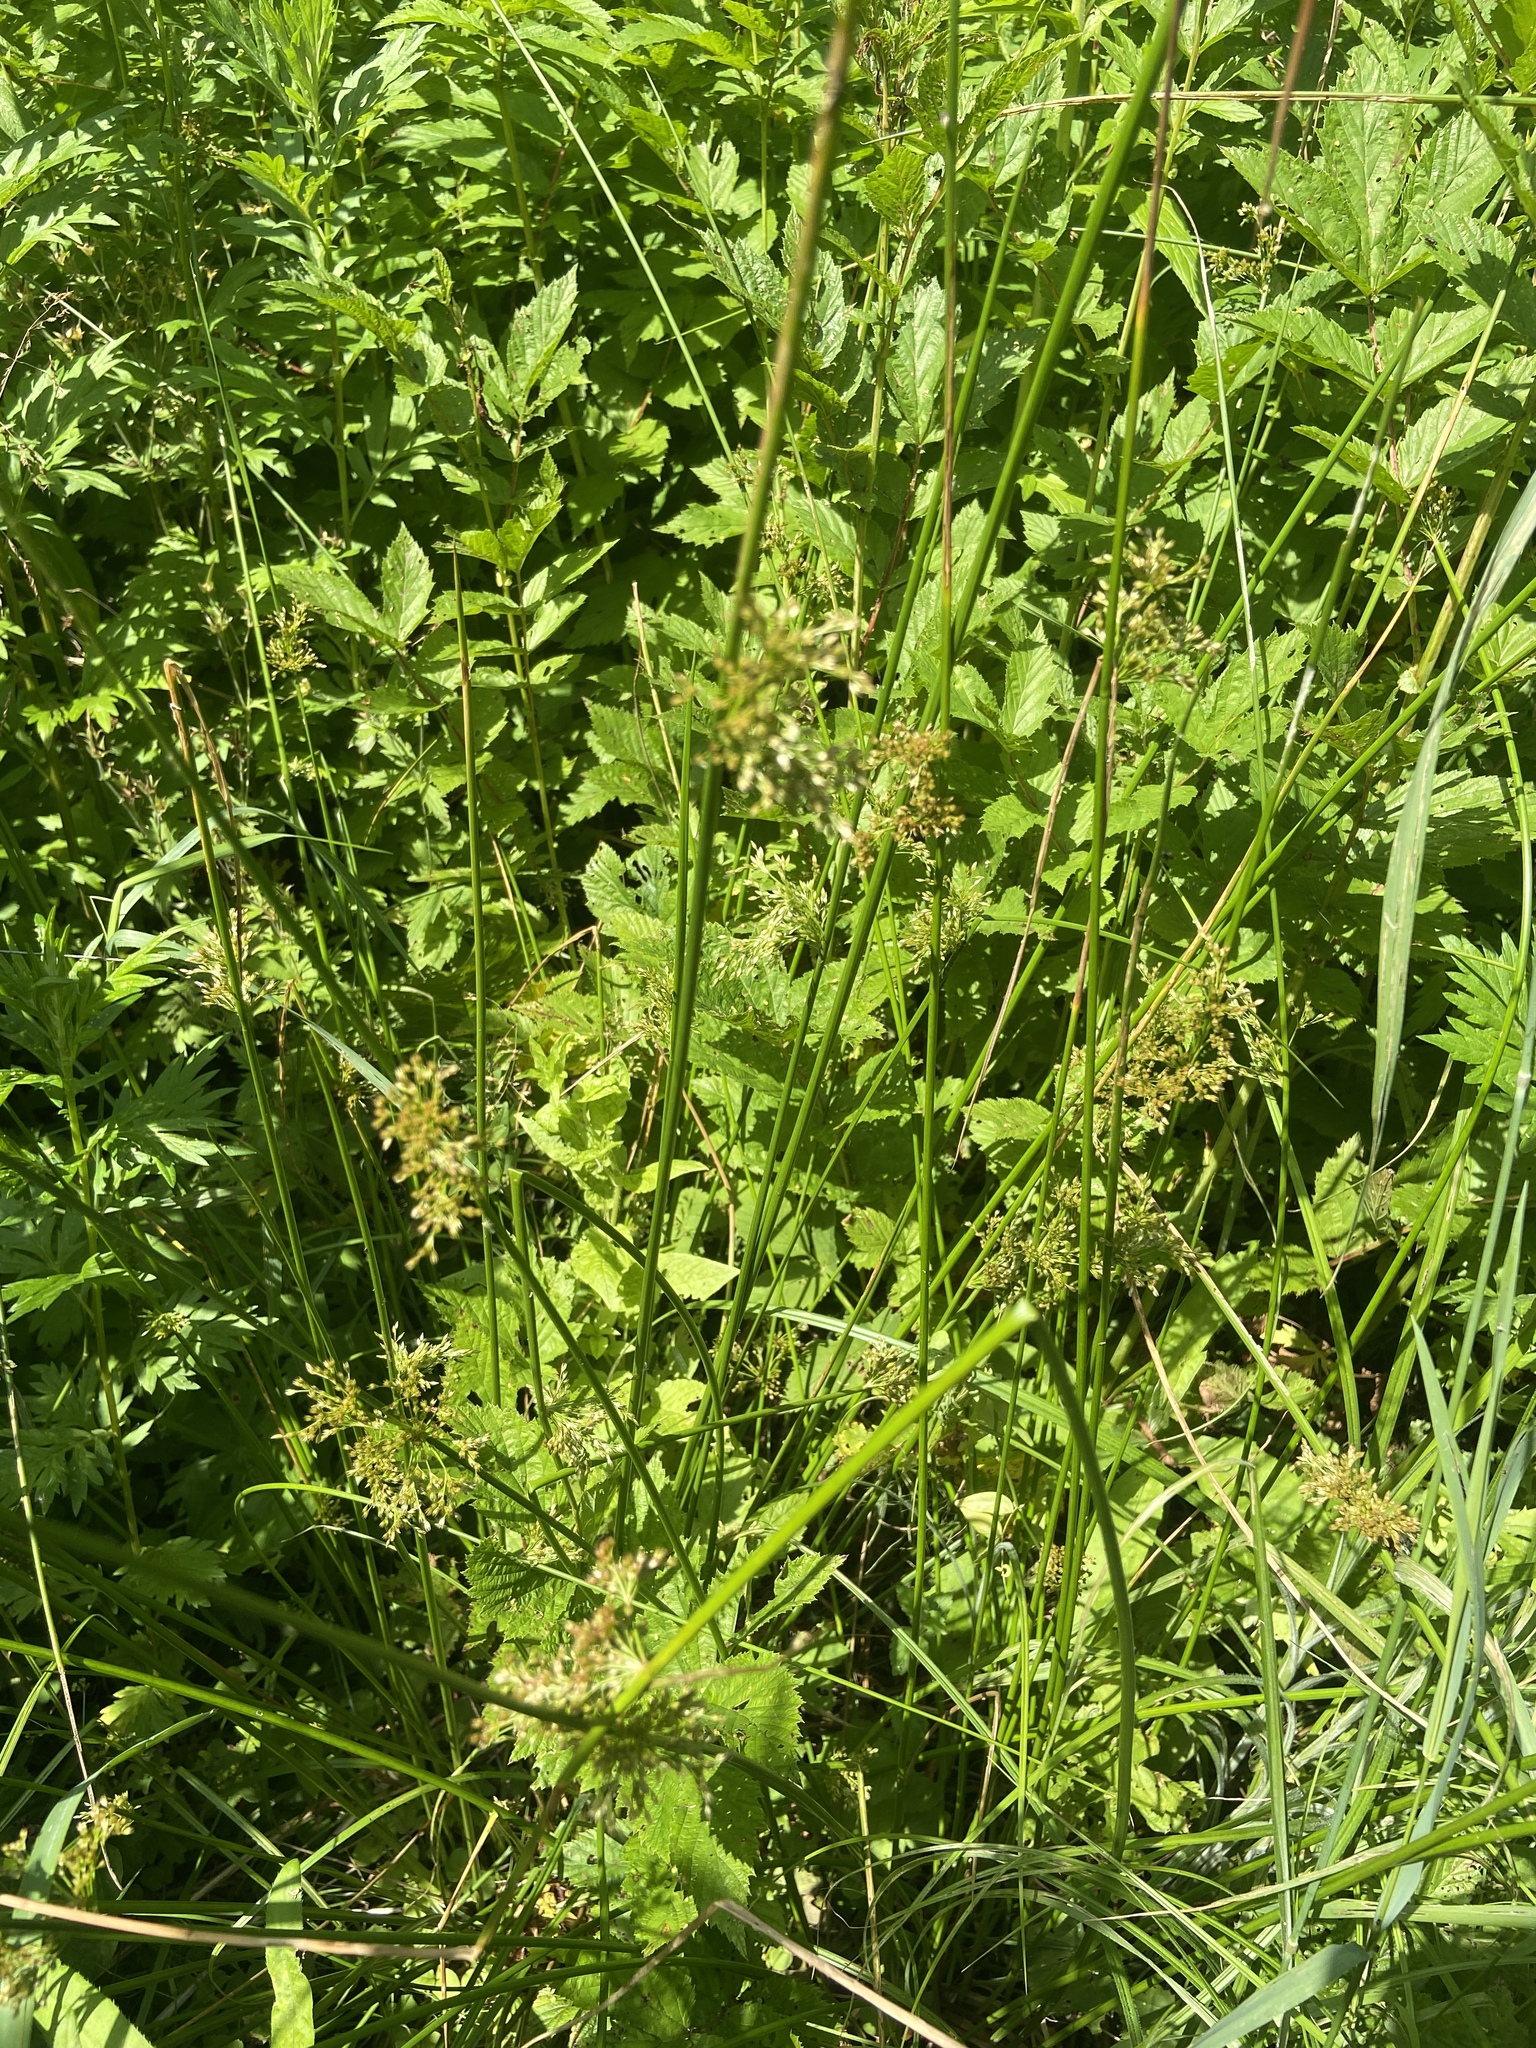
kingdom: Plantae
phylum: Tracheophyta
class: Liliopsida
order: Poales
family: Juncaceae
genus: Juncus
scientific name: Juncus effusus
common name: Soft rush
